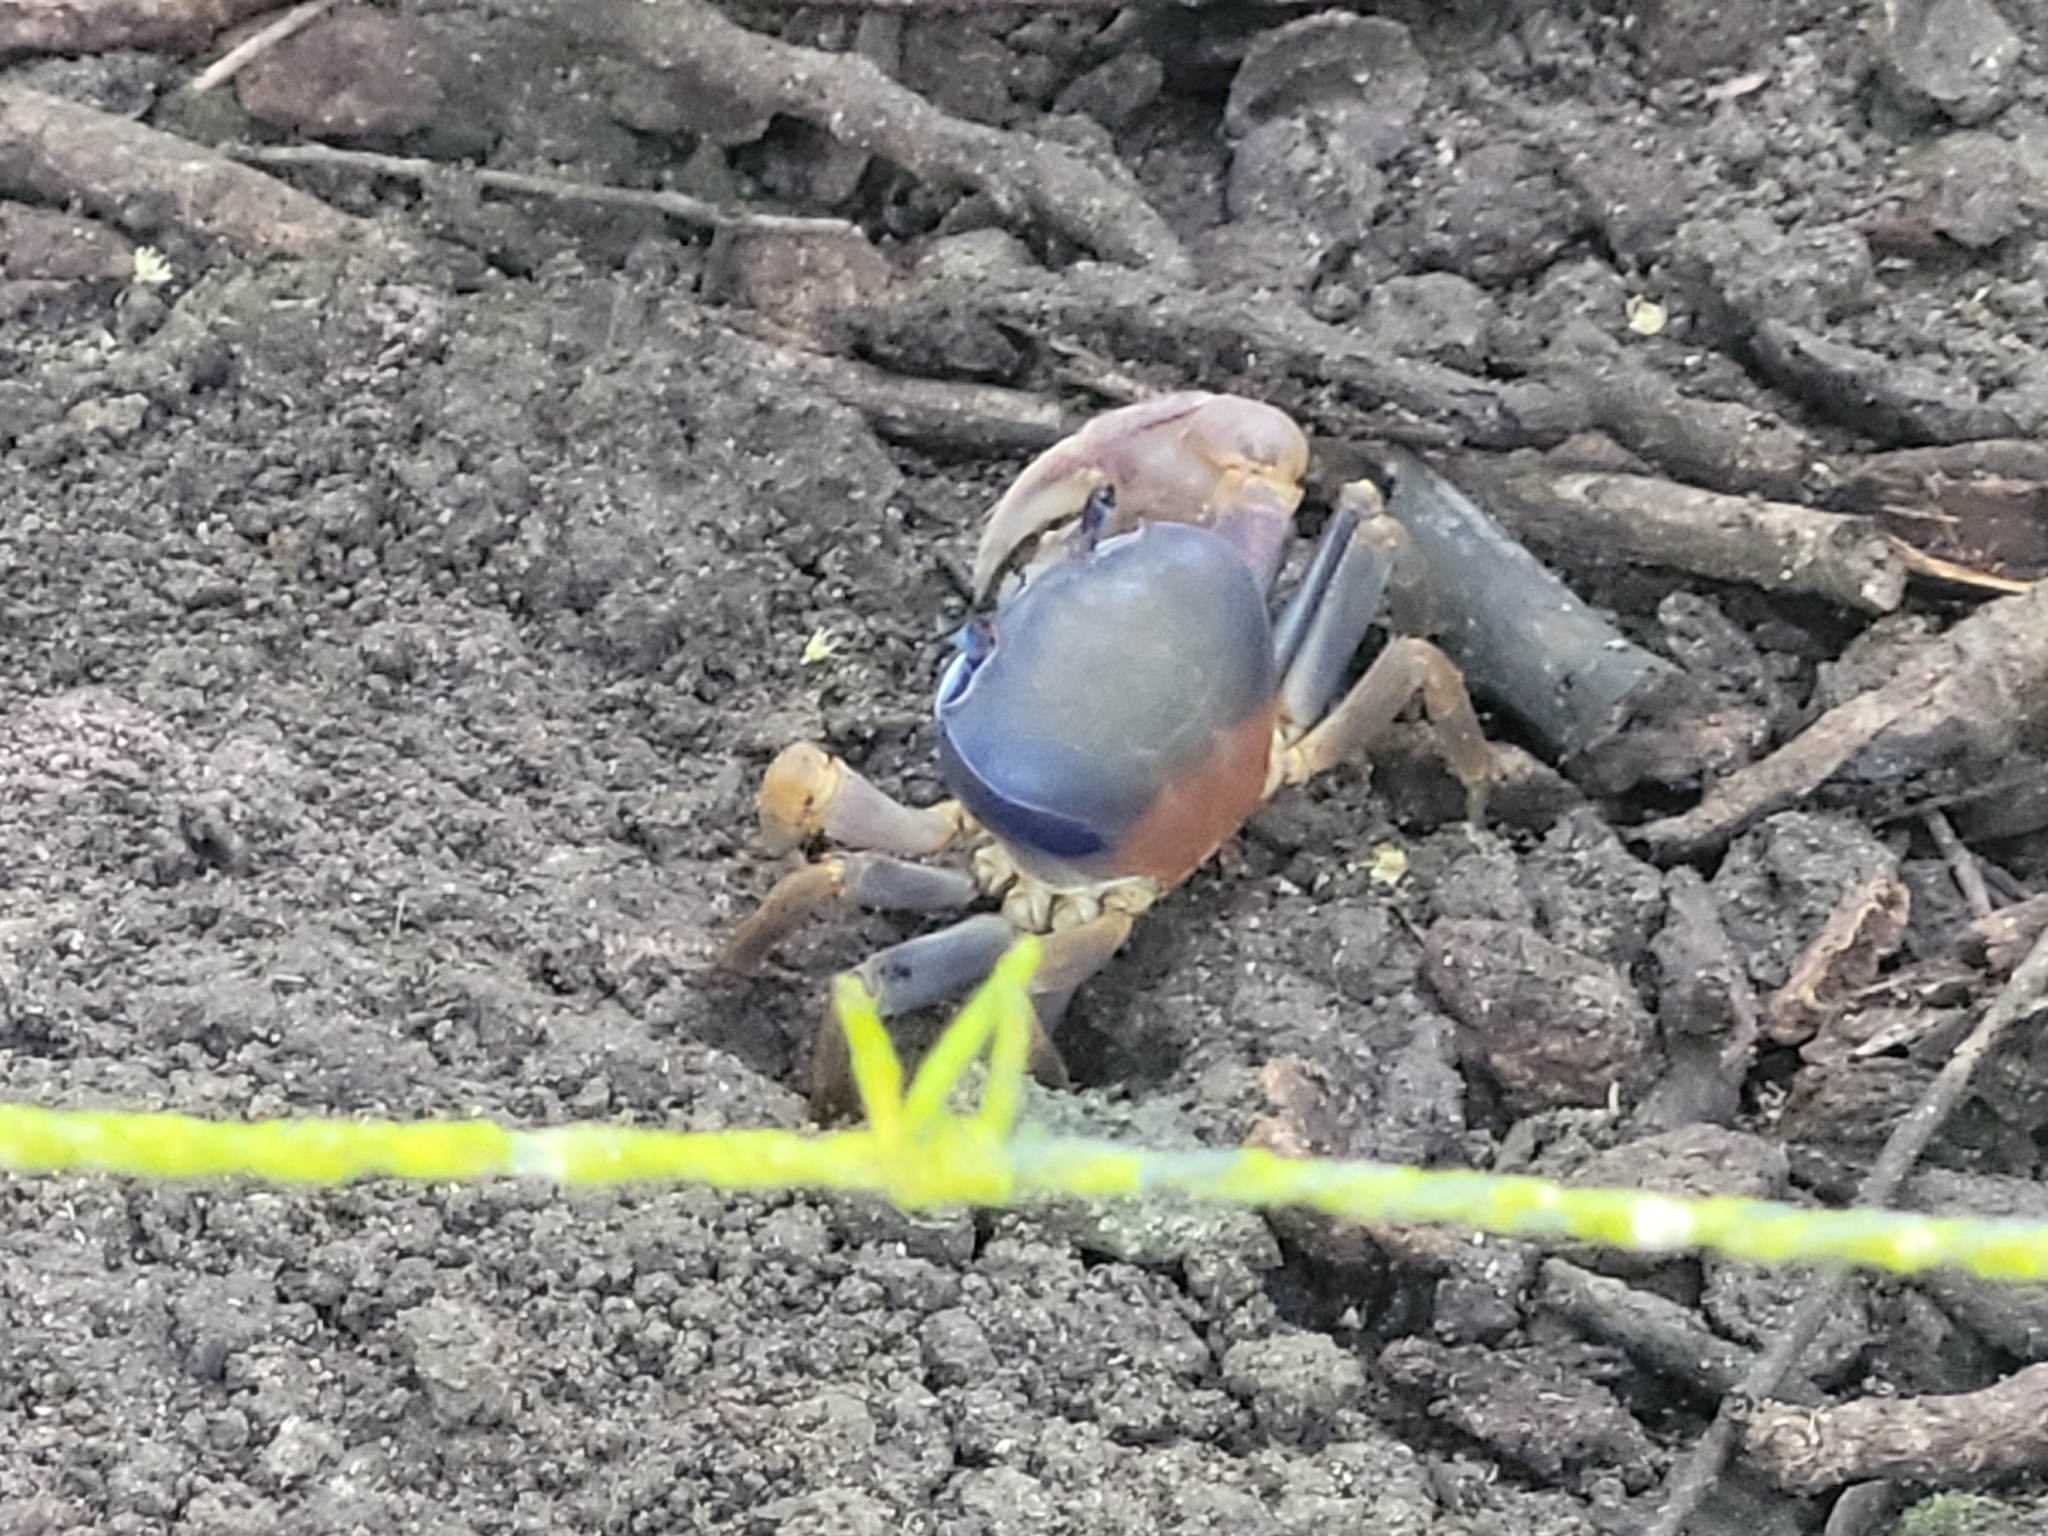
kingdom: Animalia
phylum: Arthropoda
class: Malacostraca
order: Decapoda
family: Gecarcinidae
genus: Cardisoma
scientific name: Cardisoma guanhumi
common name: Great land crab
